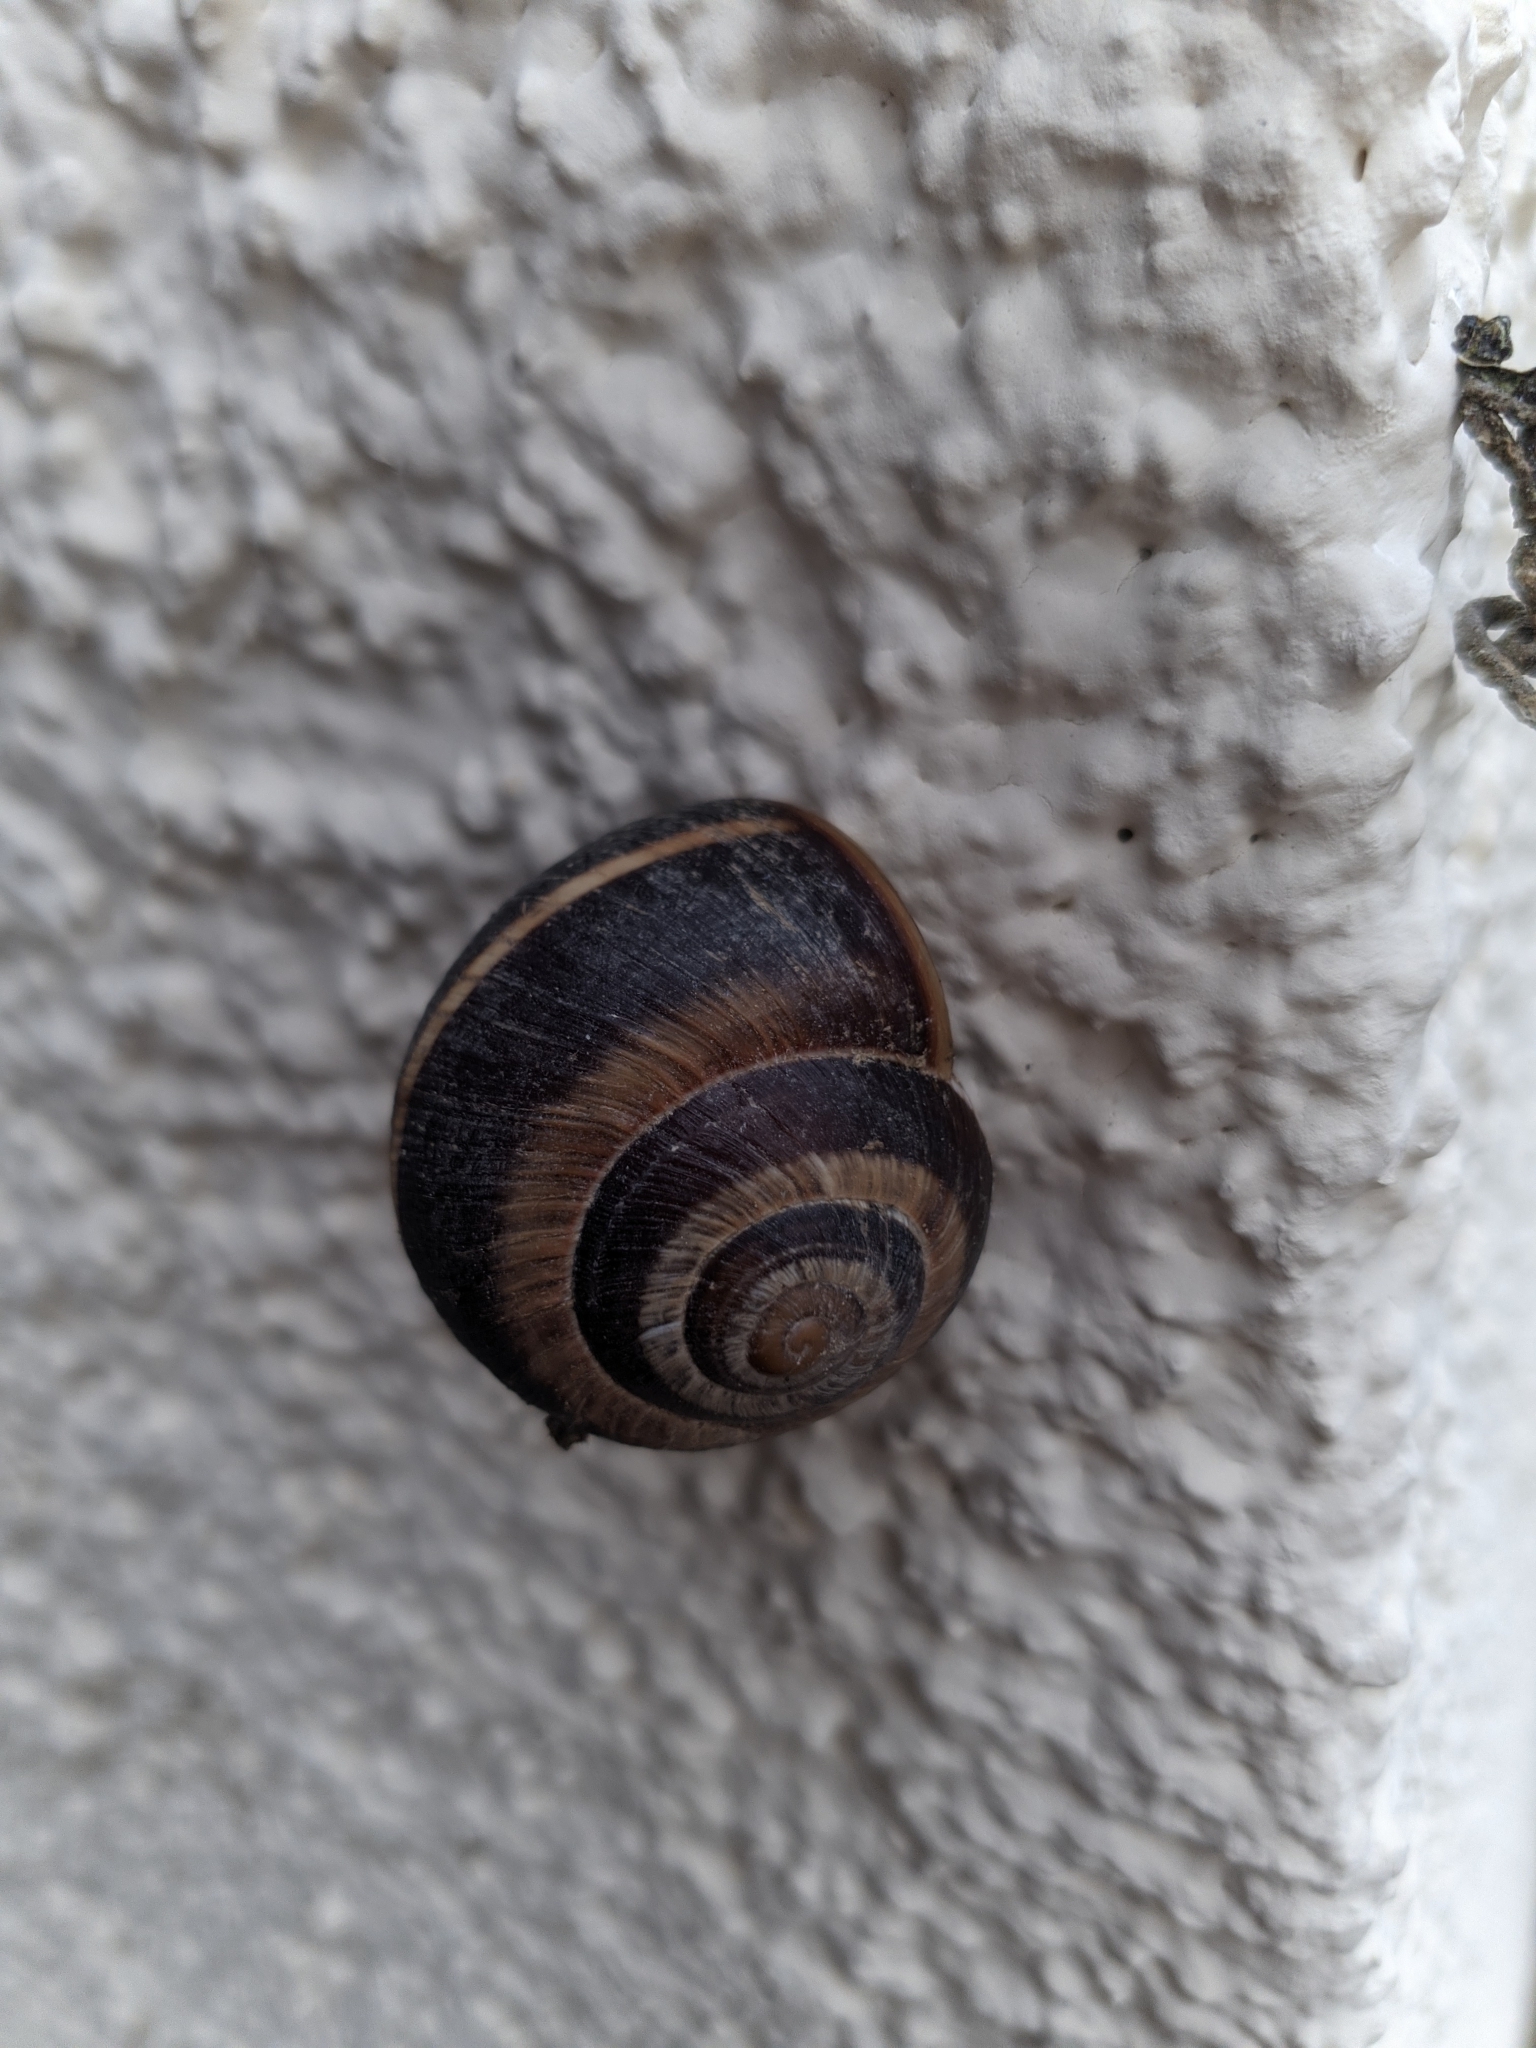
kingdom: Animalia
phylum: Mollusca
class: Gastropoda
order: Stylommatophora
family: Helicidae
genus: Helix
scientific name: Helix lucorum
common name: Turkish snail
